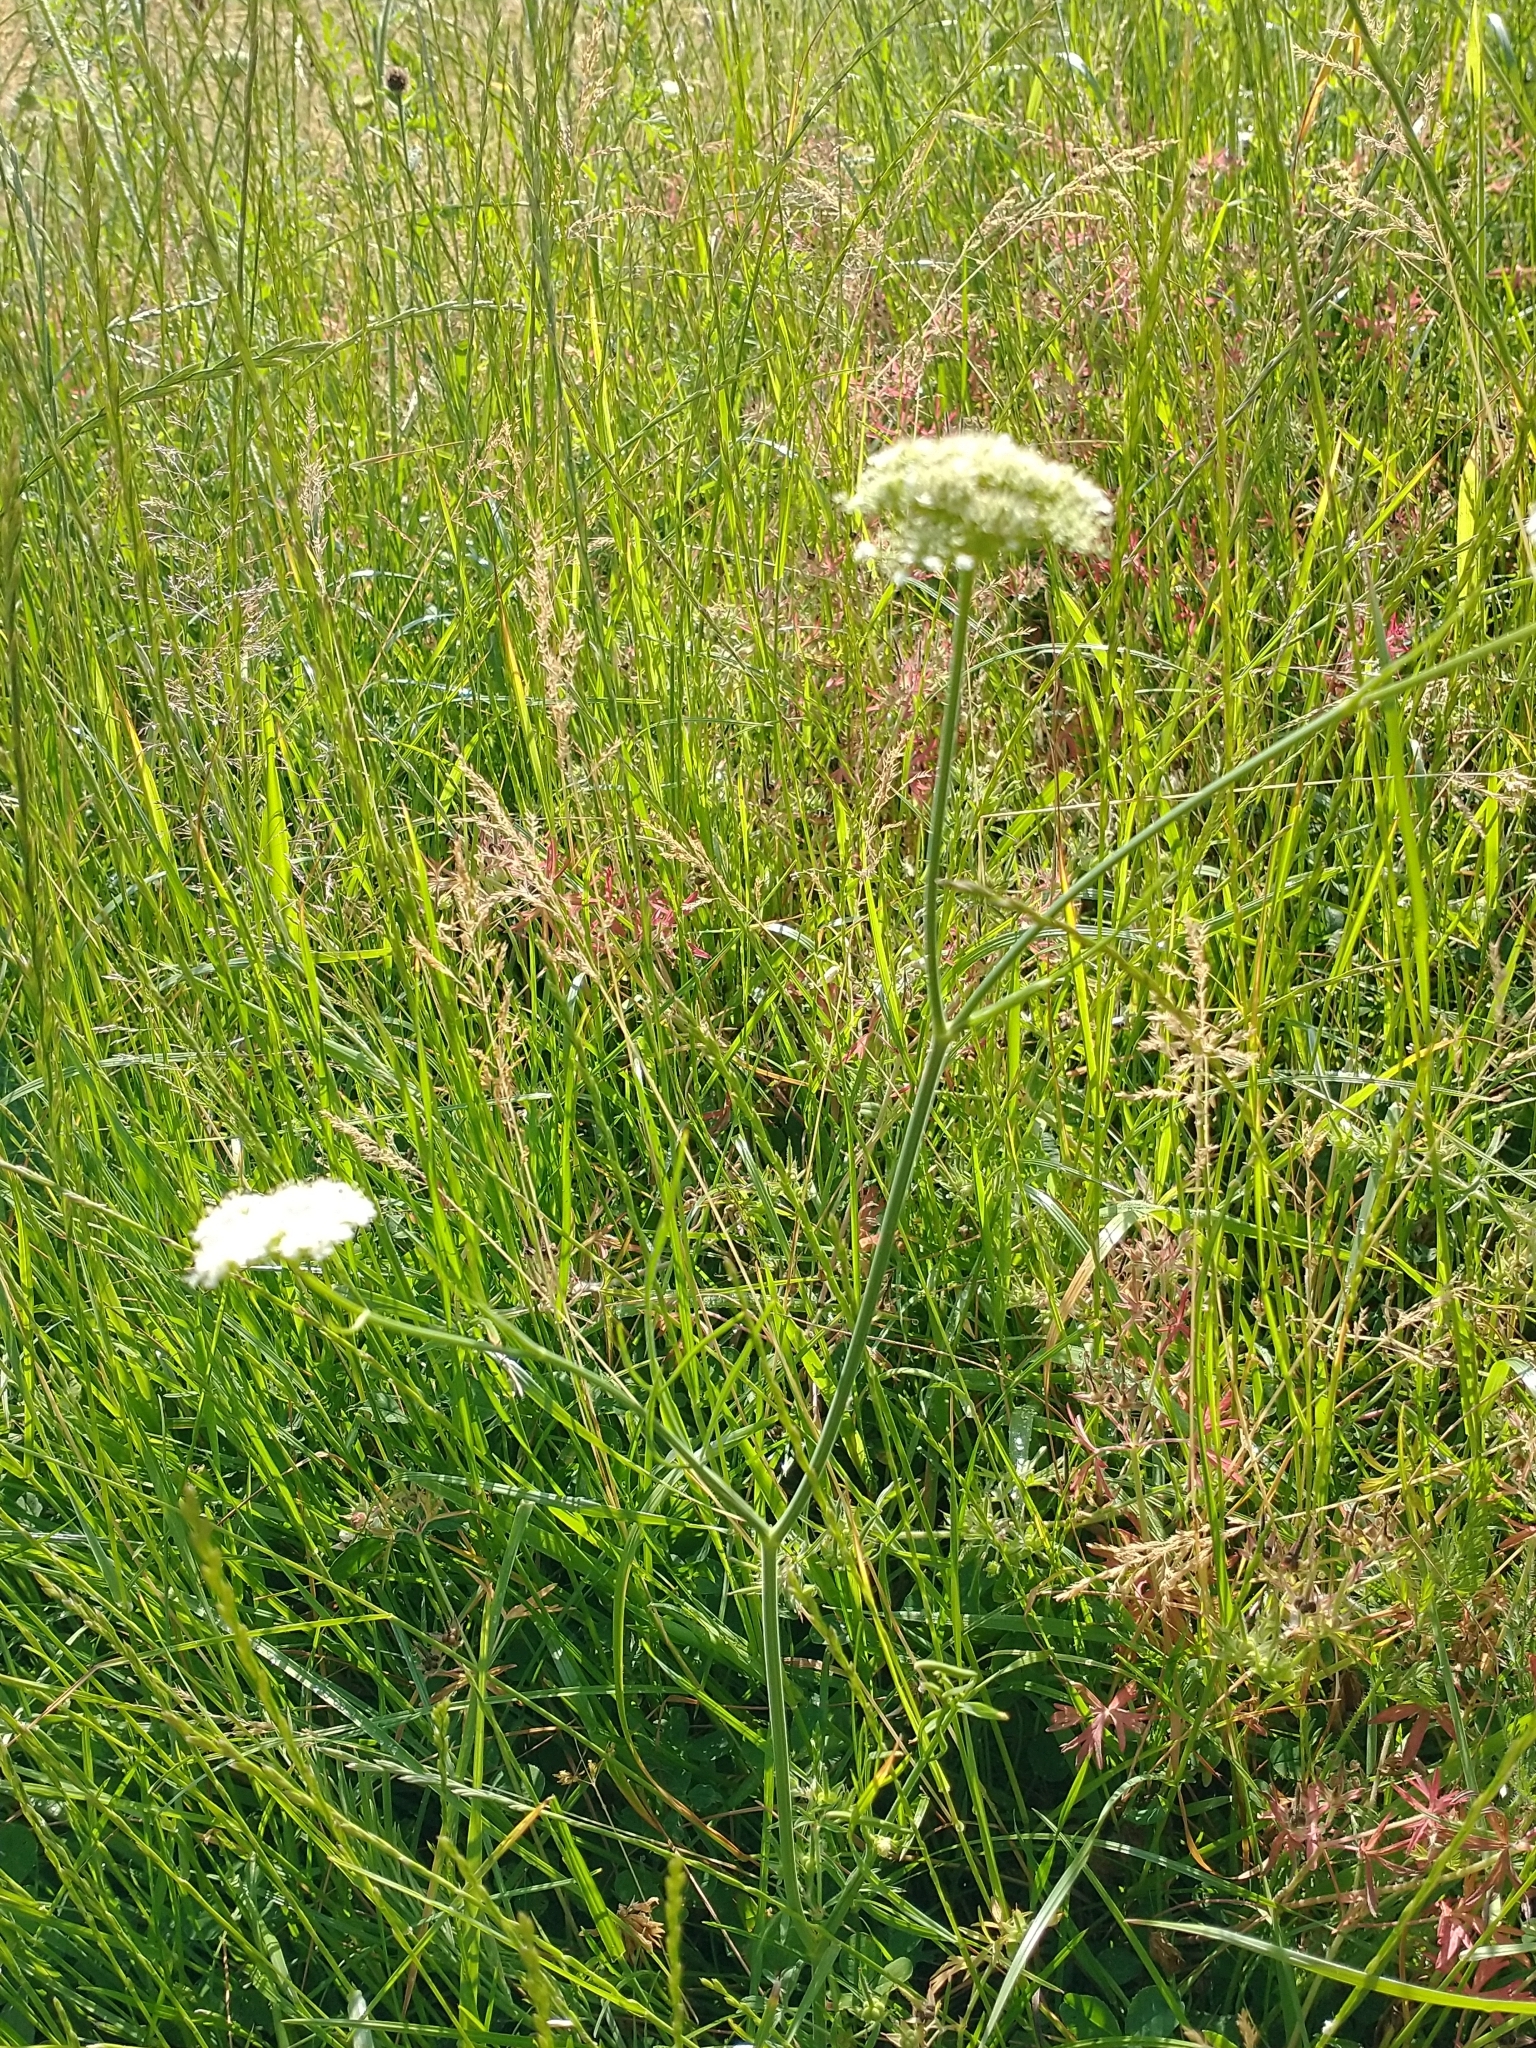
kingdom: Plantae
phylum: Tracheophyta
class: Magnoliopsida
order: Apiales
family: Apiaceae
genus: Oenanthe
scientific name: Oenanthe pimpinelloides
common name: Corky-fruited water-dropwort
